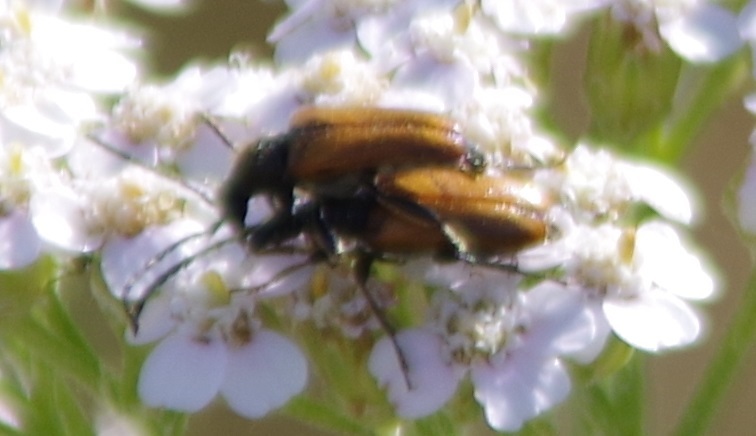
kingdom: Animalia
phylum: Arthropoda
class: Insecta
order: Coleoptera
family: Cerambycidae
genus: Pseudovadonia
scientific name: Pseudovadonia livida
